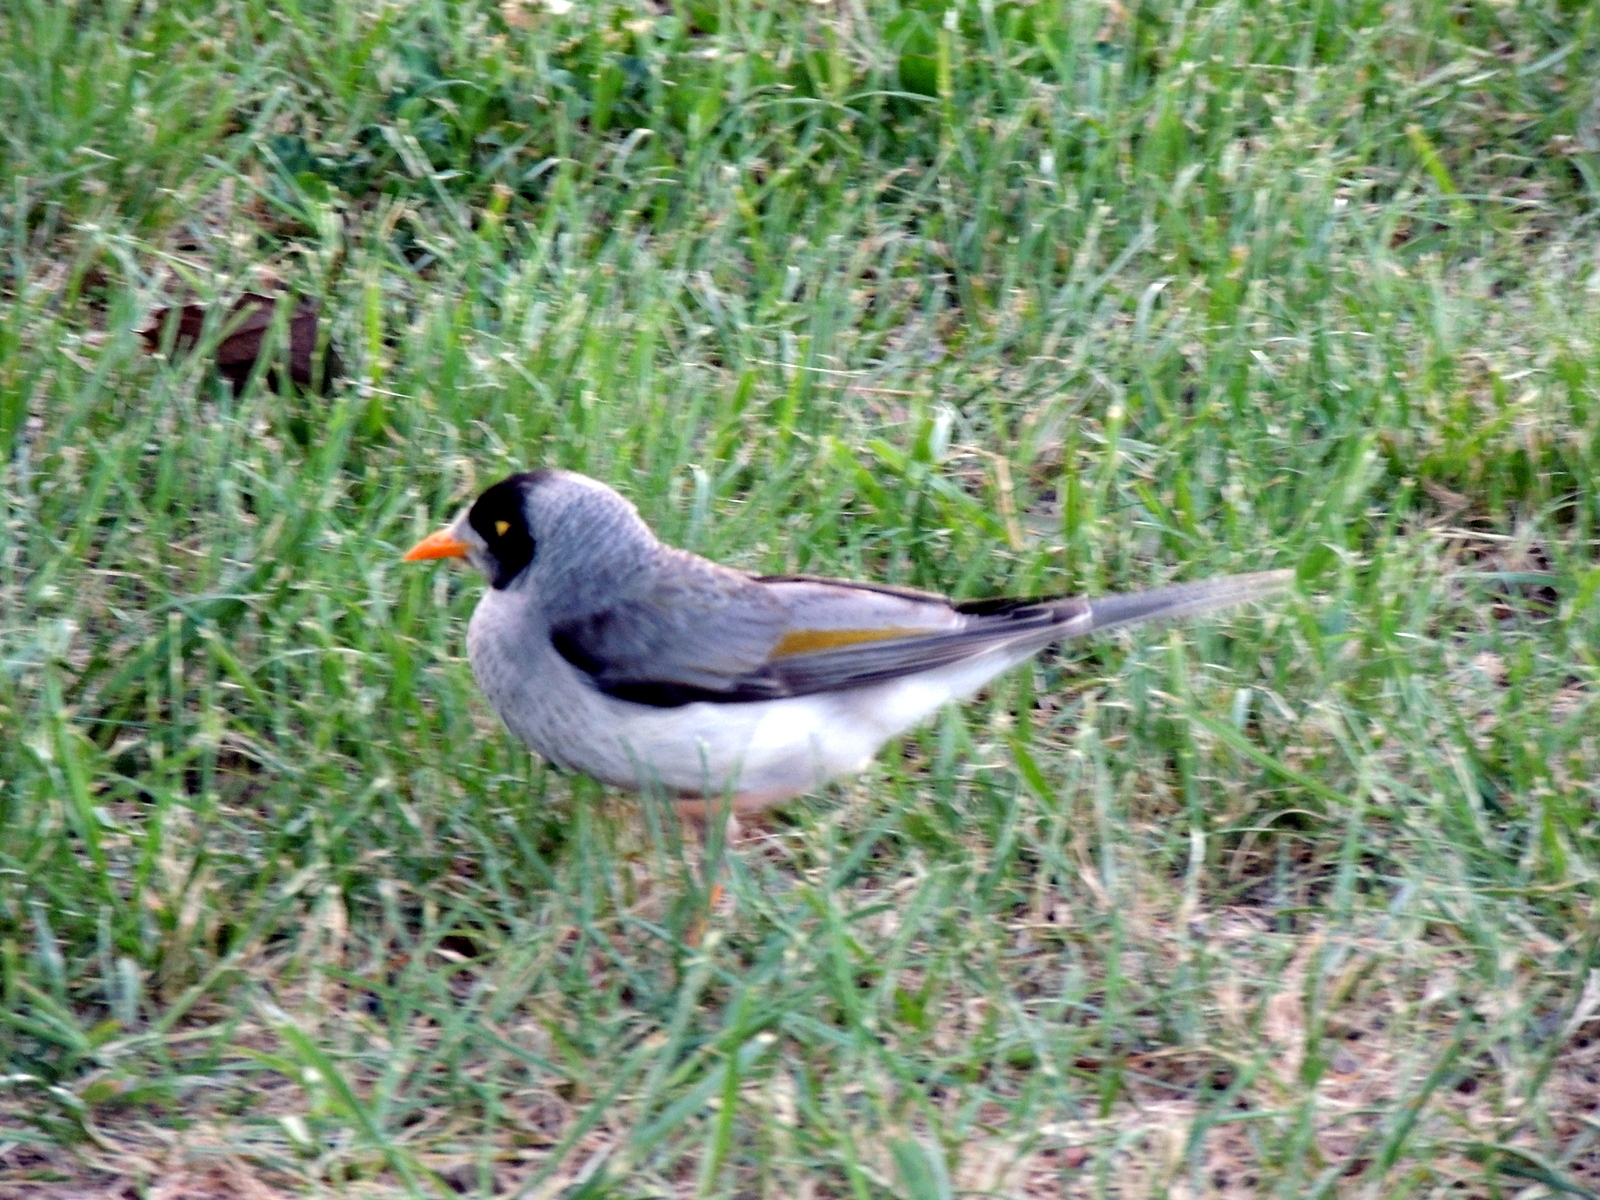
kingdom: Animalia
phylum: Chordata
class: Aves
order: Passeriformes
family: Meliphagidae
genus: Manorina
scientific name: Manorina melanocephala
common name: Noisy miner
